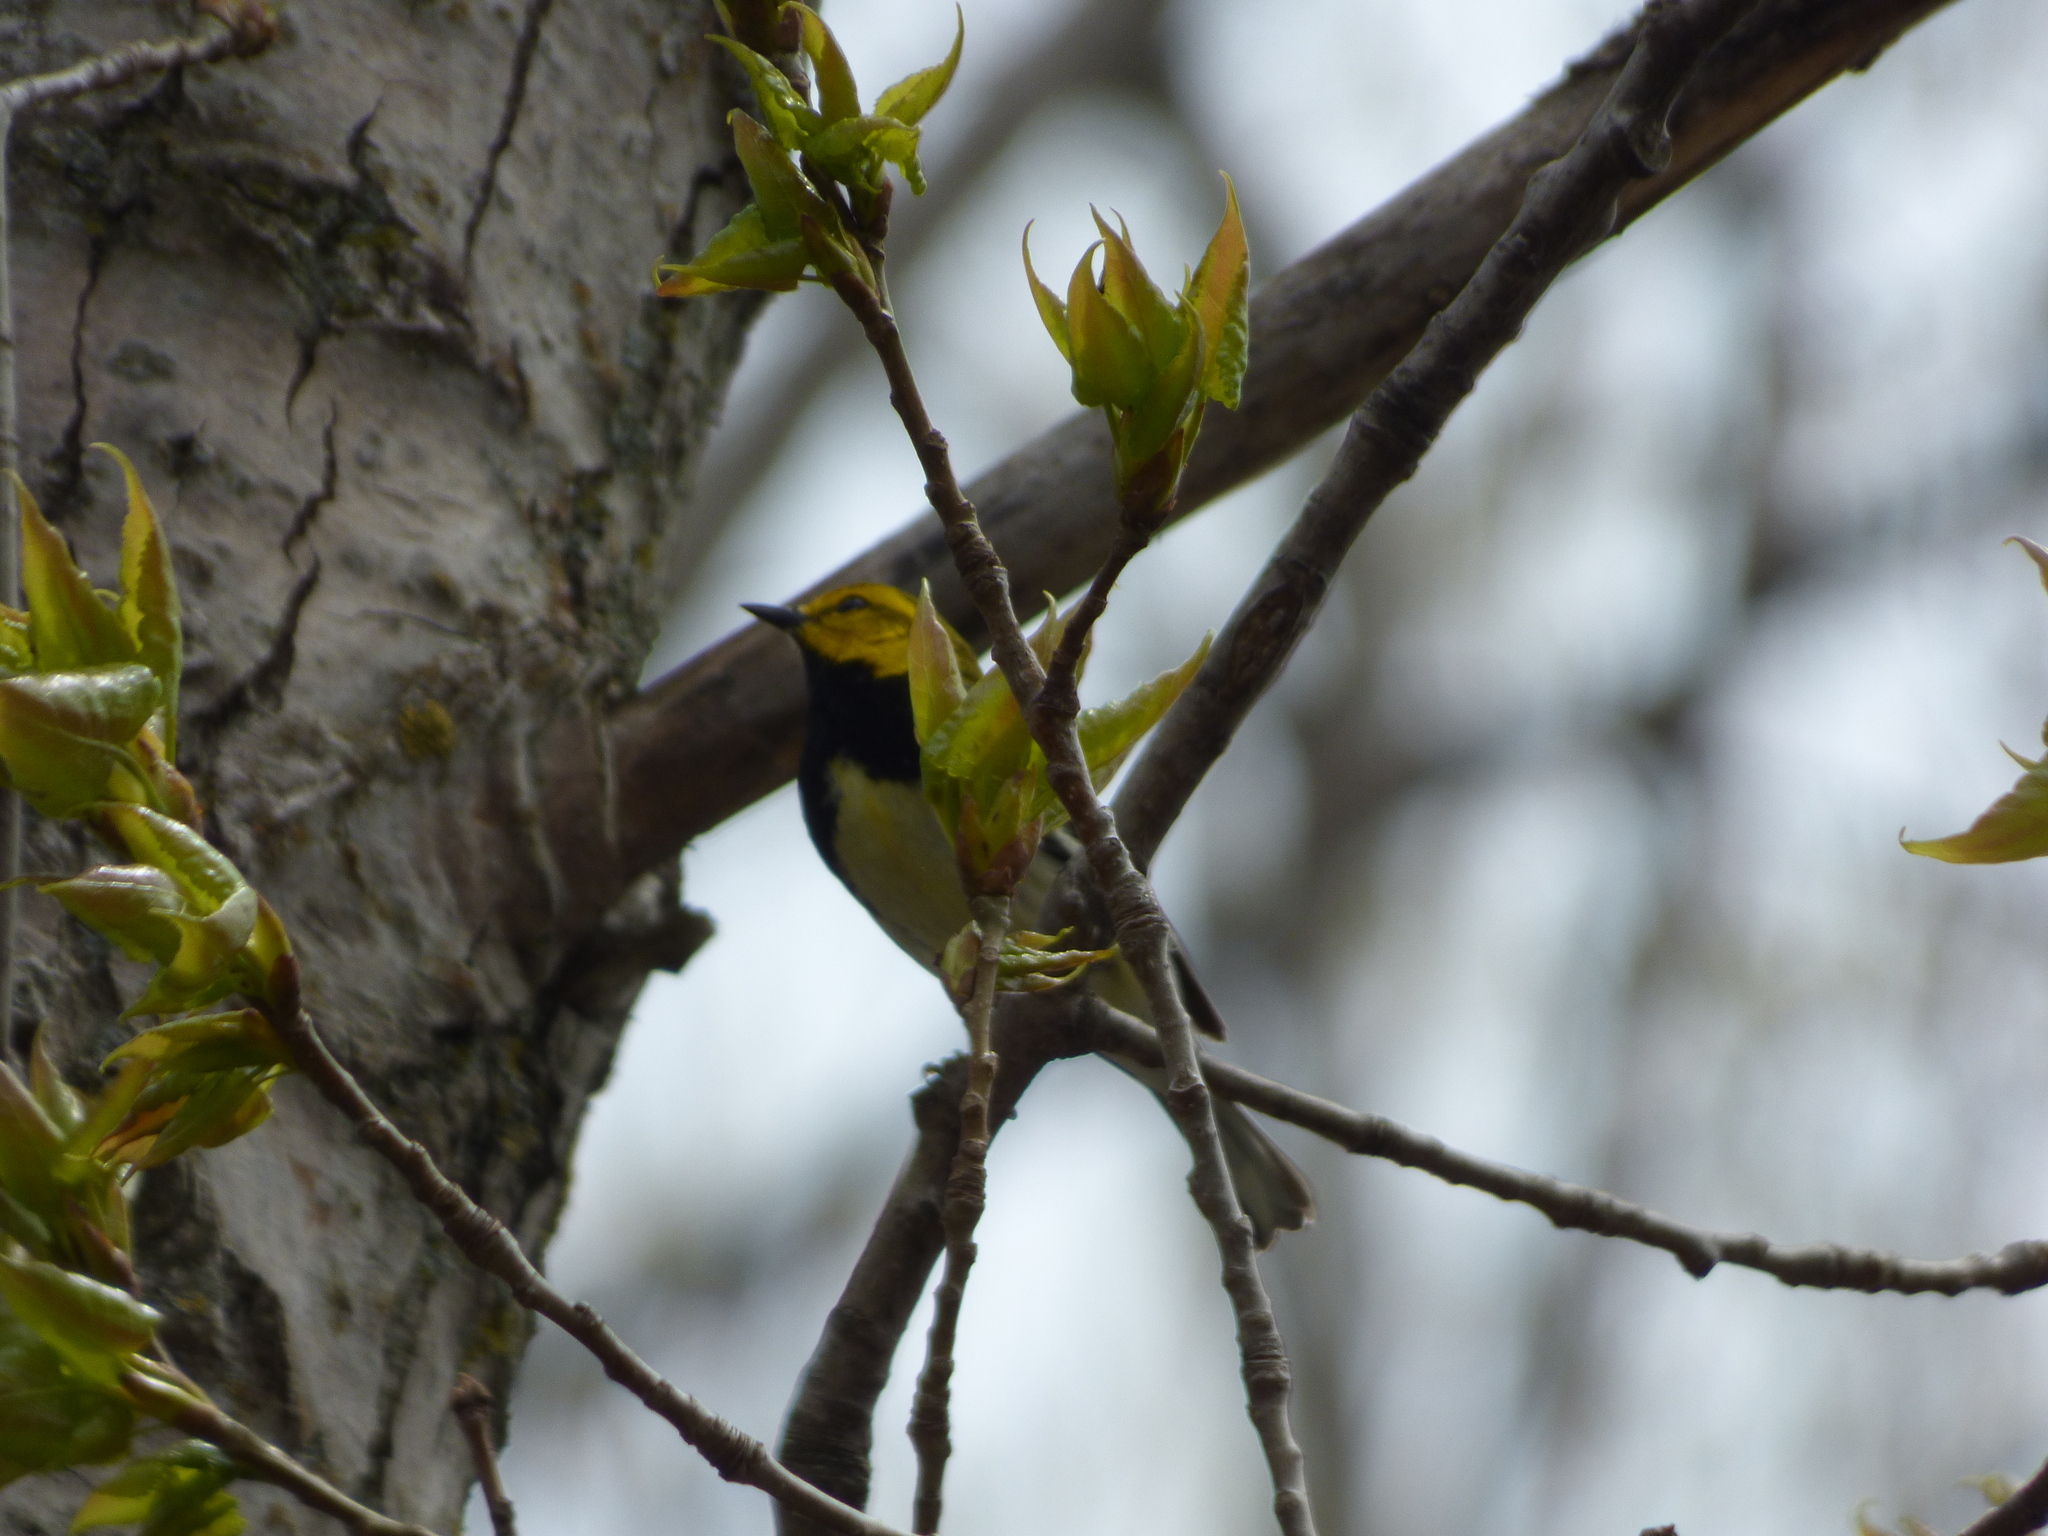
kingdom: Animalia
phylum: Chordata
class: Aves
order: Passeriformes
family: Parulidae
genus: Setophaga
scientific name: Setophaga virens
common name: Black-throated green warbler
